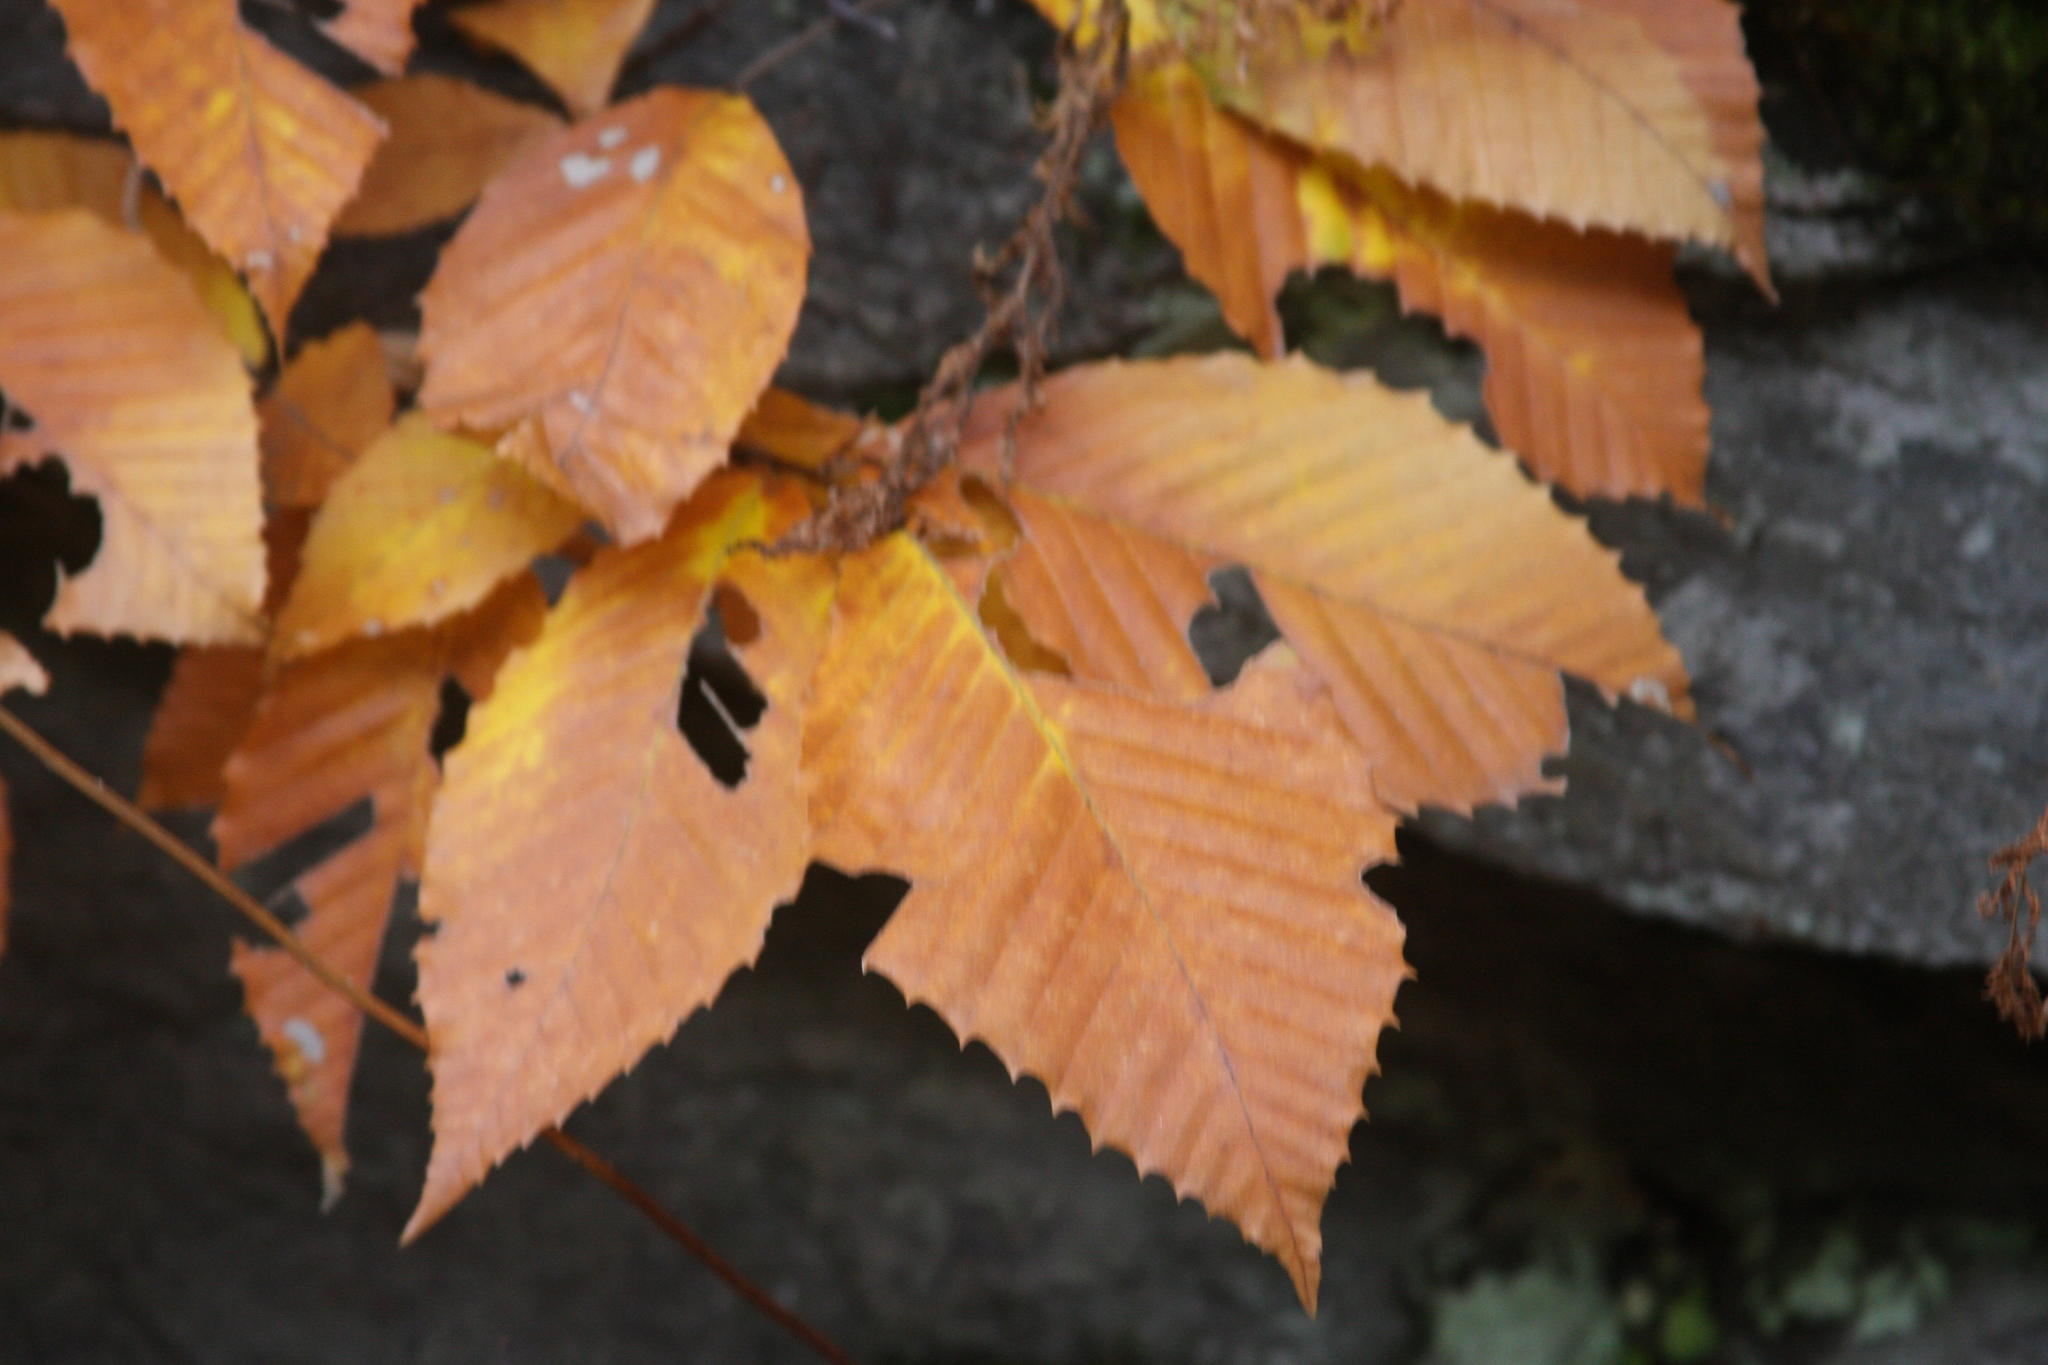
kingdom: Plantae
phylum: Tracheophyta
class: Magnoliopsida
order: Fagales
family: Fagaceae
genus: Fagus
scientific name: Fagus grandifolia
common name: American beech
